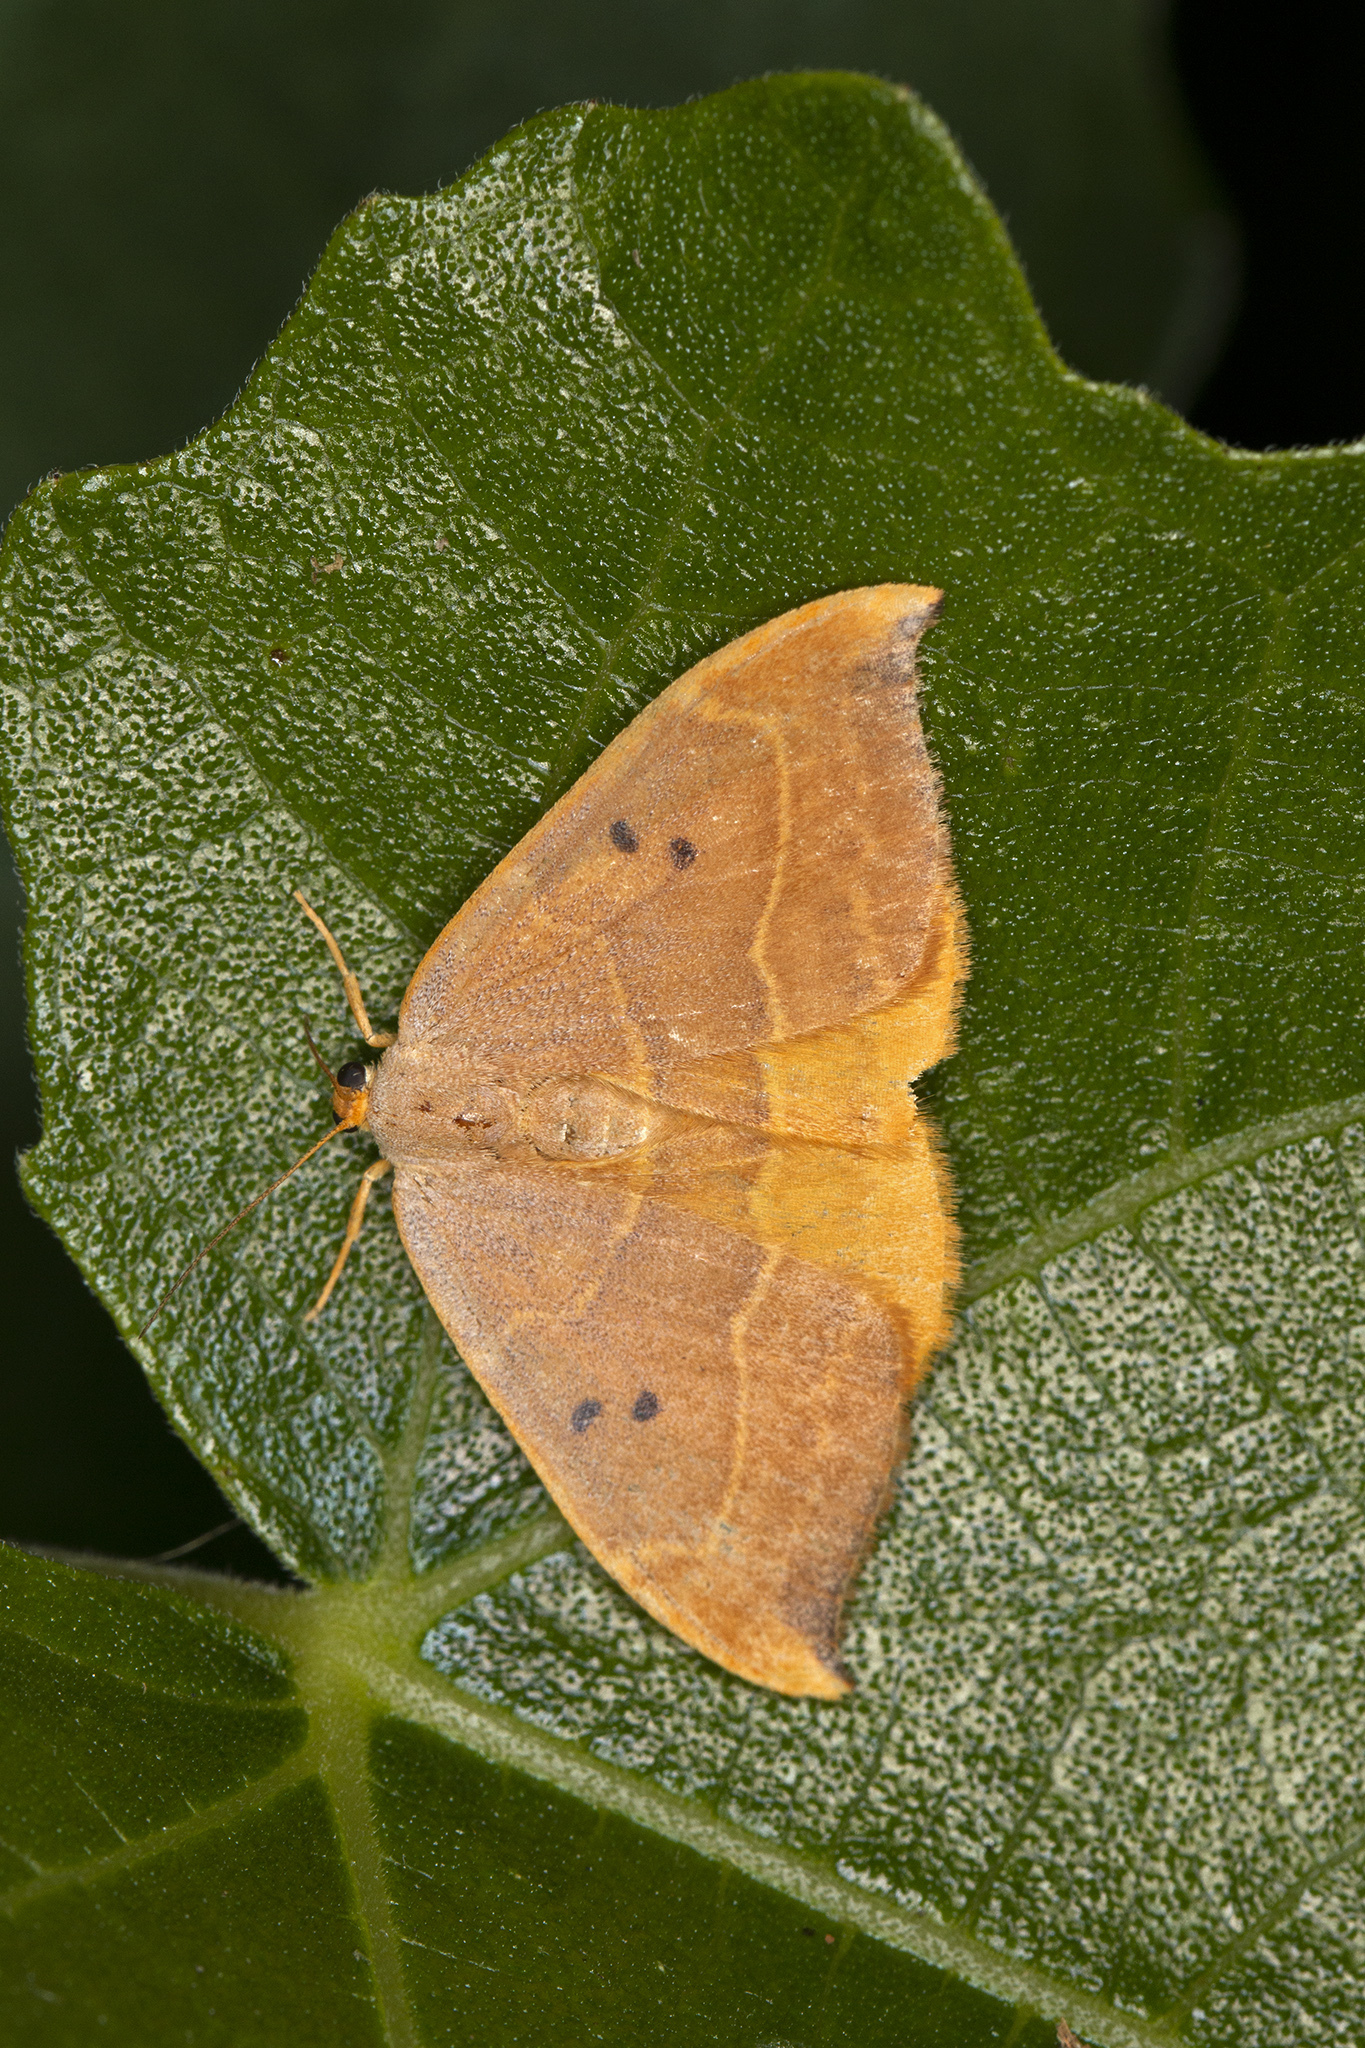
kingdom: Animalia
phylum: Arthropoda
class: Insecta
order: Lepidoptera
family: Drepanidae
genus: Watsonalla
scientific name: Watsonalla binaria
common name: Oak hook-tip
